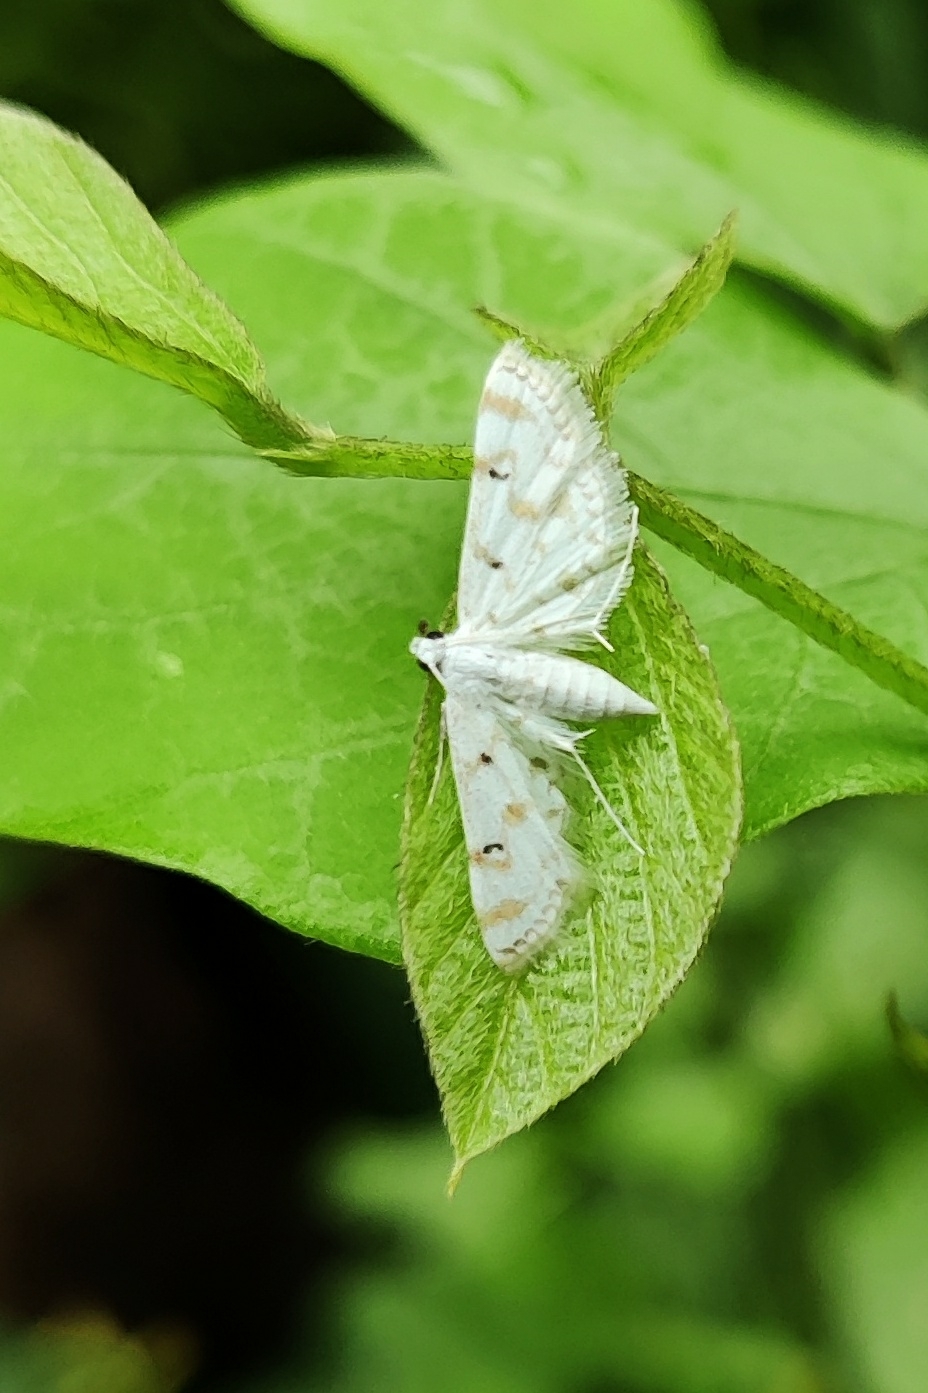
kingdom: Animalia
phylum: Arthropoda
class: Insecta
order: Lepidoptera
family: Crambidae
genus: Parapoynx
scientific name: Parapoynx stagnalis
